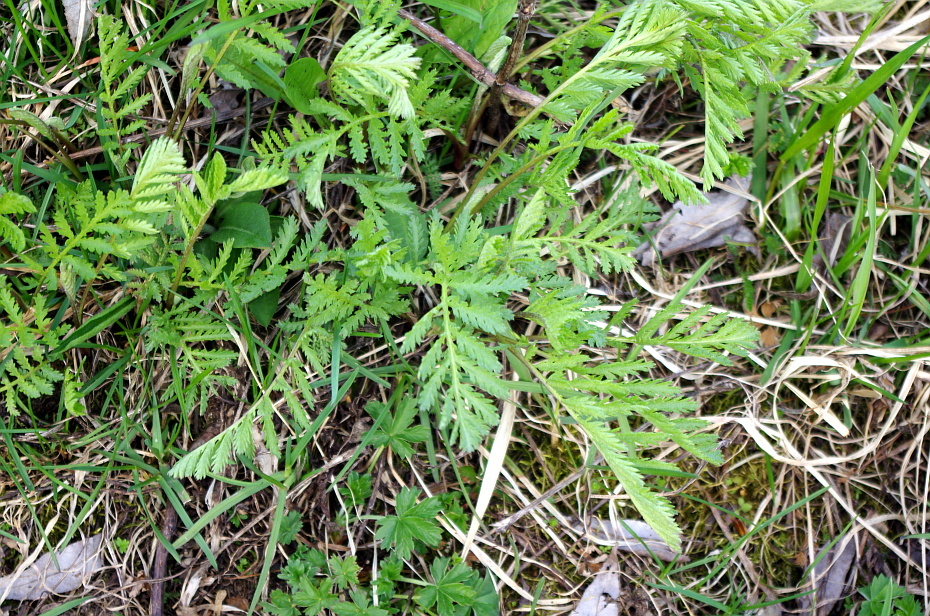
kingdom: Plantae
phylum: Tracheophyta
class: Magnoliopsida
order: Asterales
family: Asteraceae
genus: Tanacetum
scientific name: Tanacetum vulgare
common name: Common tansy
